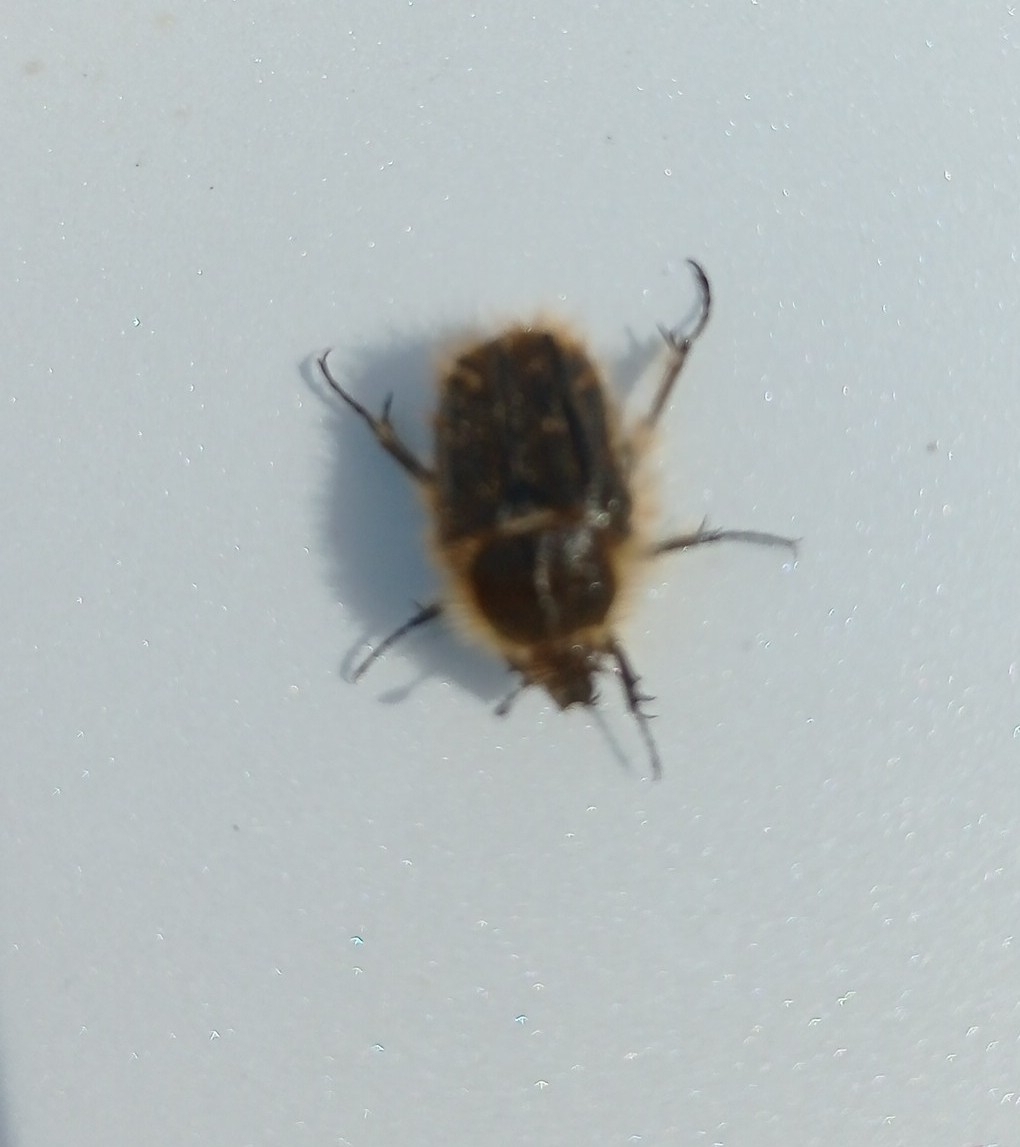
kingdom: Animalia
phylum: Arthropoda
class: Insecta
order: Coleoptera
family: Scarabaeidae
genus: Tropinota
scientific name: Tropinota squalida
